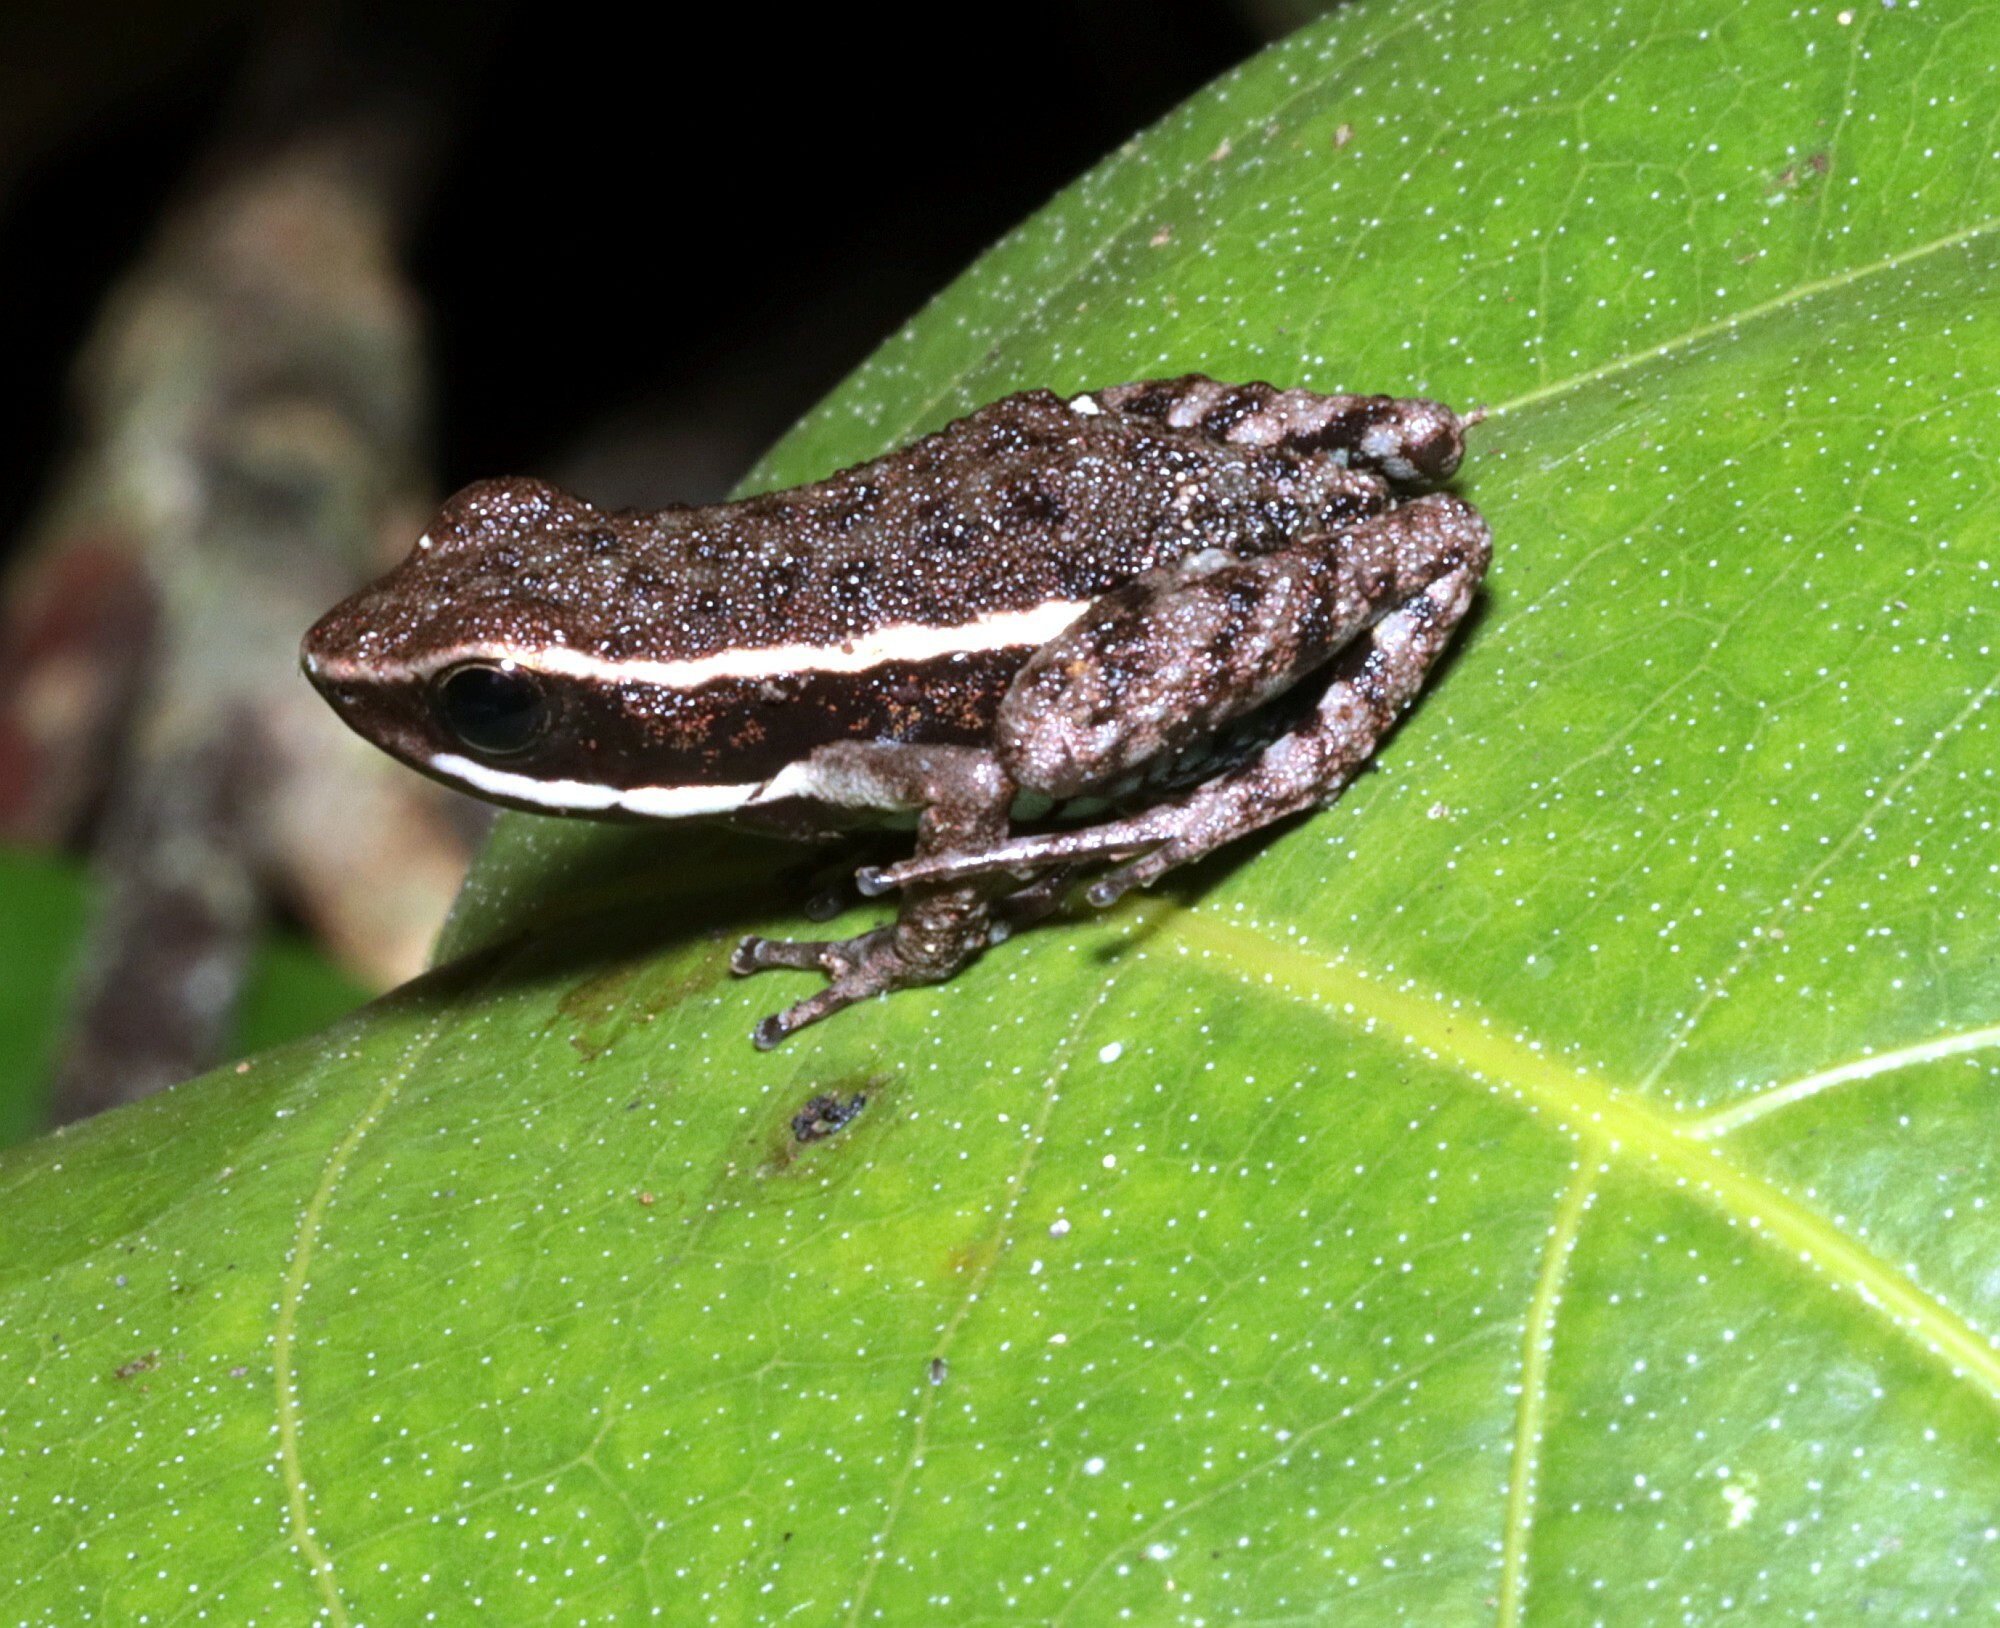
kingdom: Animalia
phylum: Chordata
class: Amphibia
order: Anura
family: Dendrobatidae
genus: Ameerega
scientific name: Ameerega hahneli
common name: Yurimaguas pioson frog
